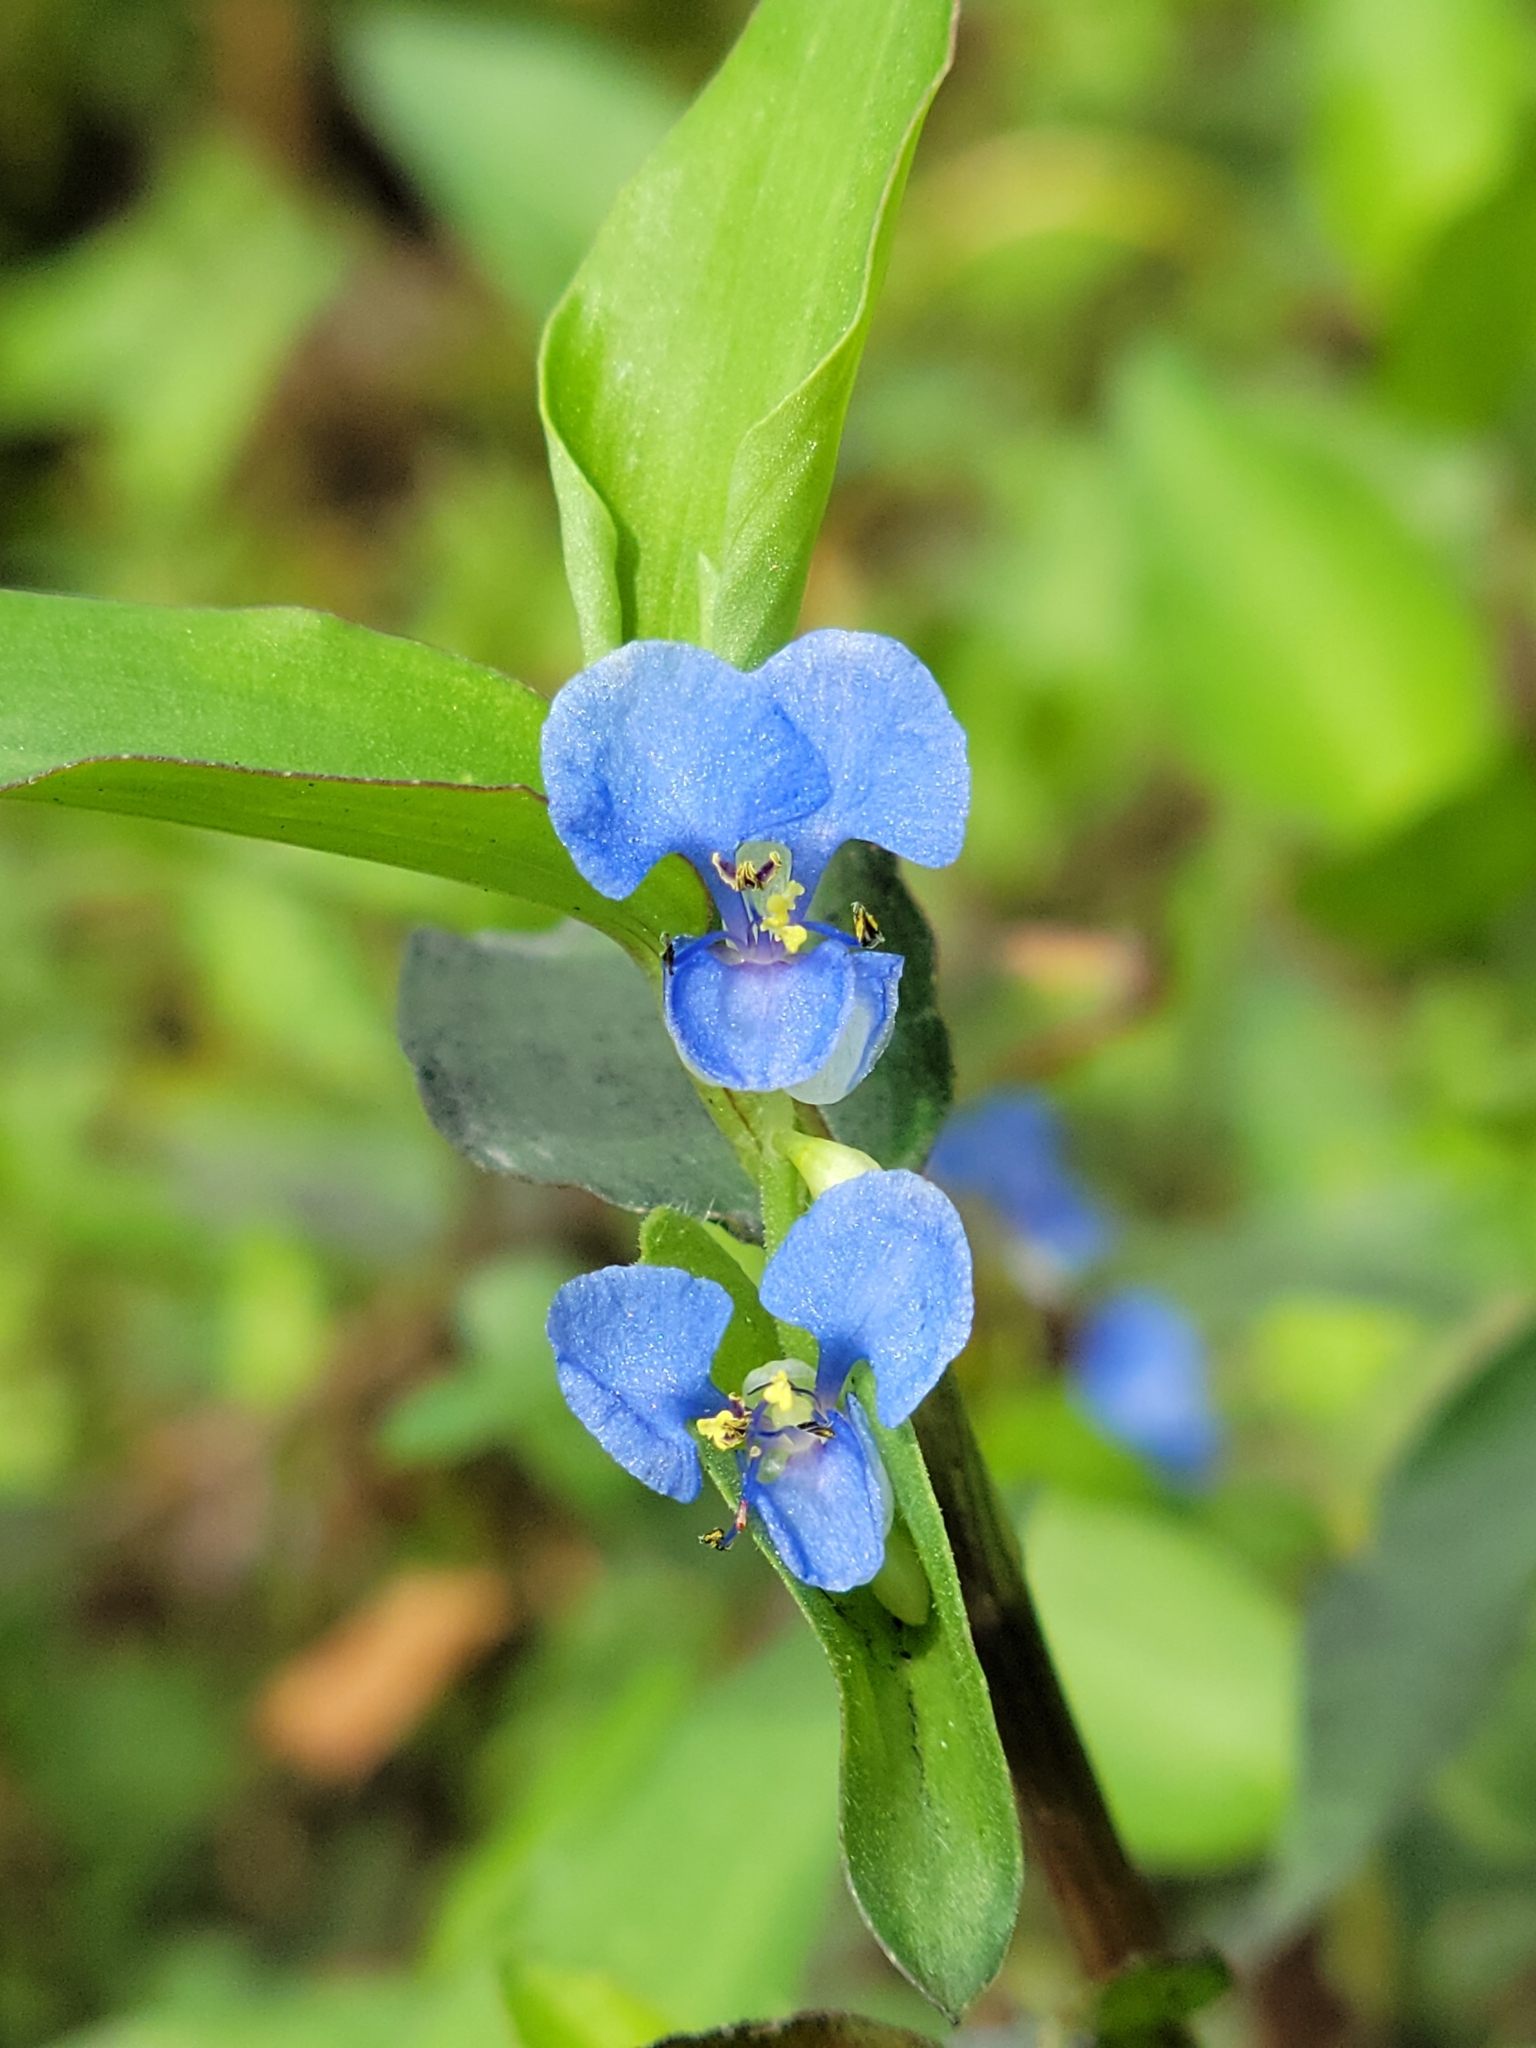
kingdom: Plantae
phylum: Tracheophyta
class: Liliopsida
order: Commelinales
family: Commelinaceae
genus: Commelina
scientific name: Commelina diffusa
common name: Climbing dayflower
